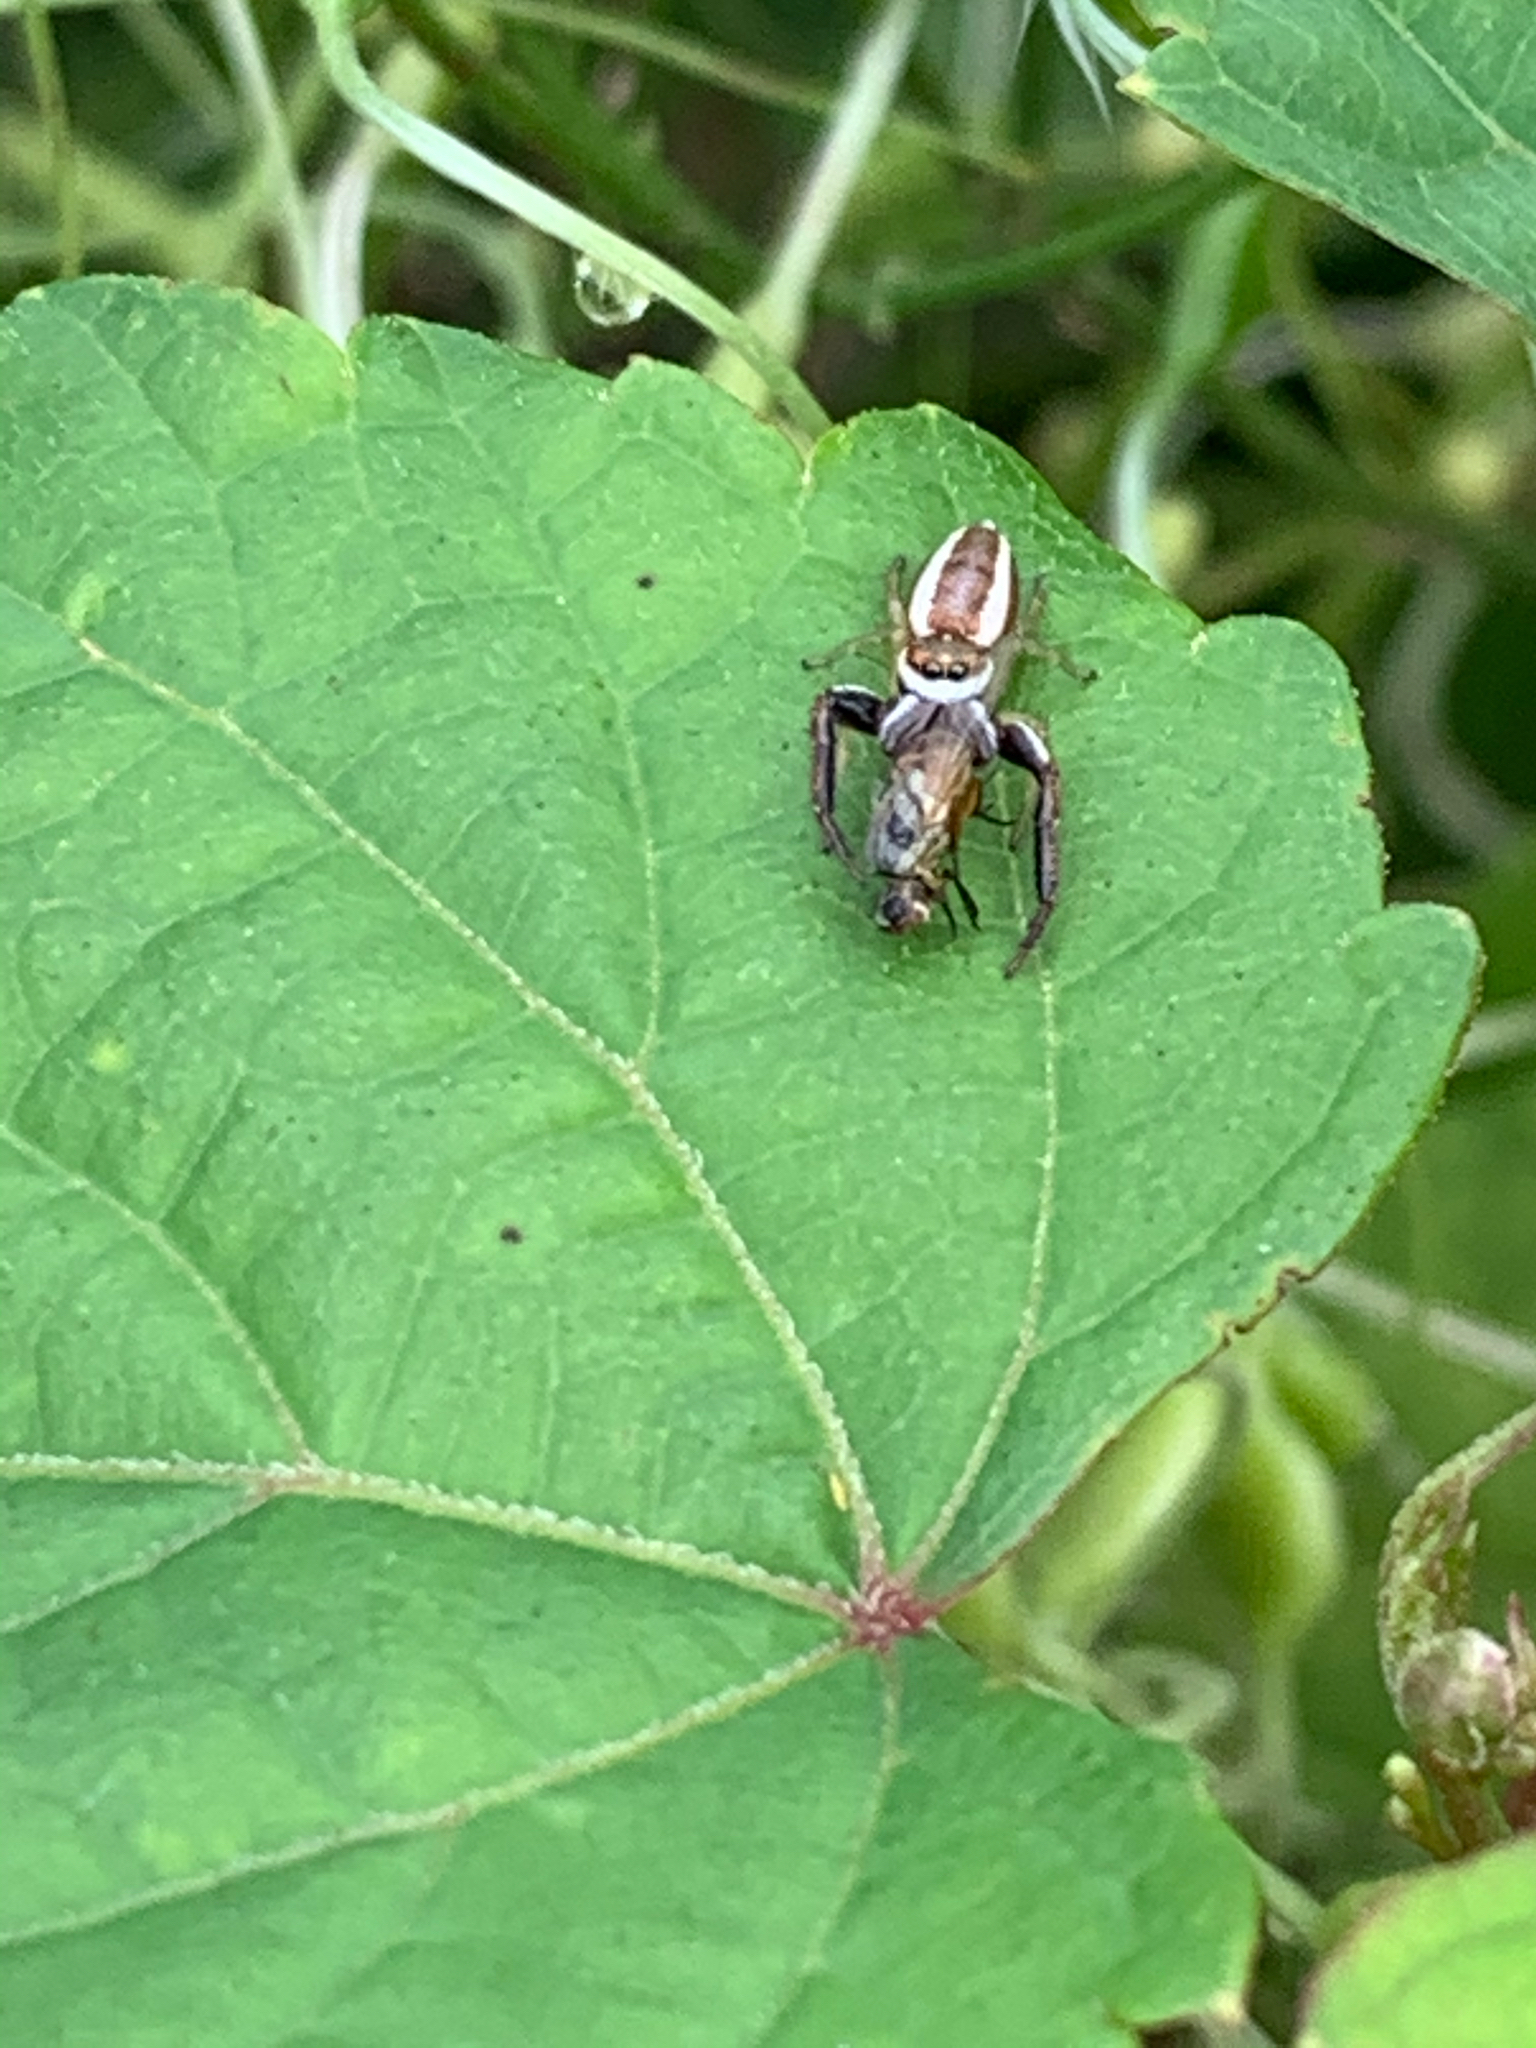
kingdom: Animalia
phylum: Arthropoda
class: Arachnida
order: Araneae
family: Salticidae
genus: Hentzia
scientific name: Hentzia palmarum
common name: Common hentz jumping spider
